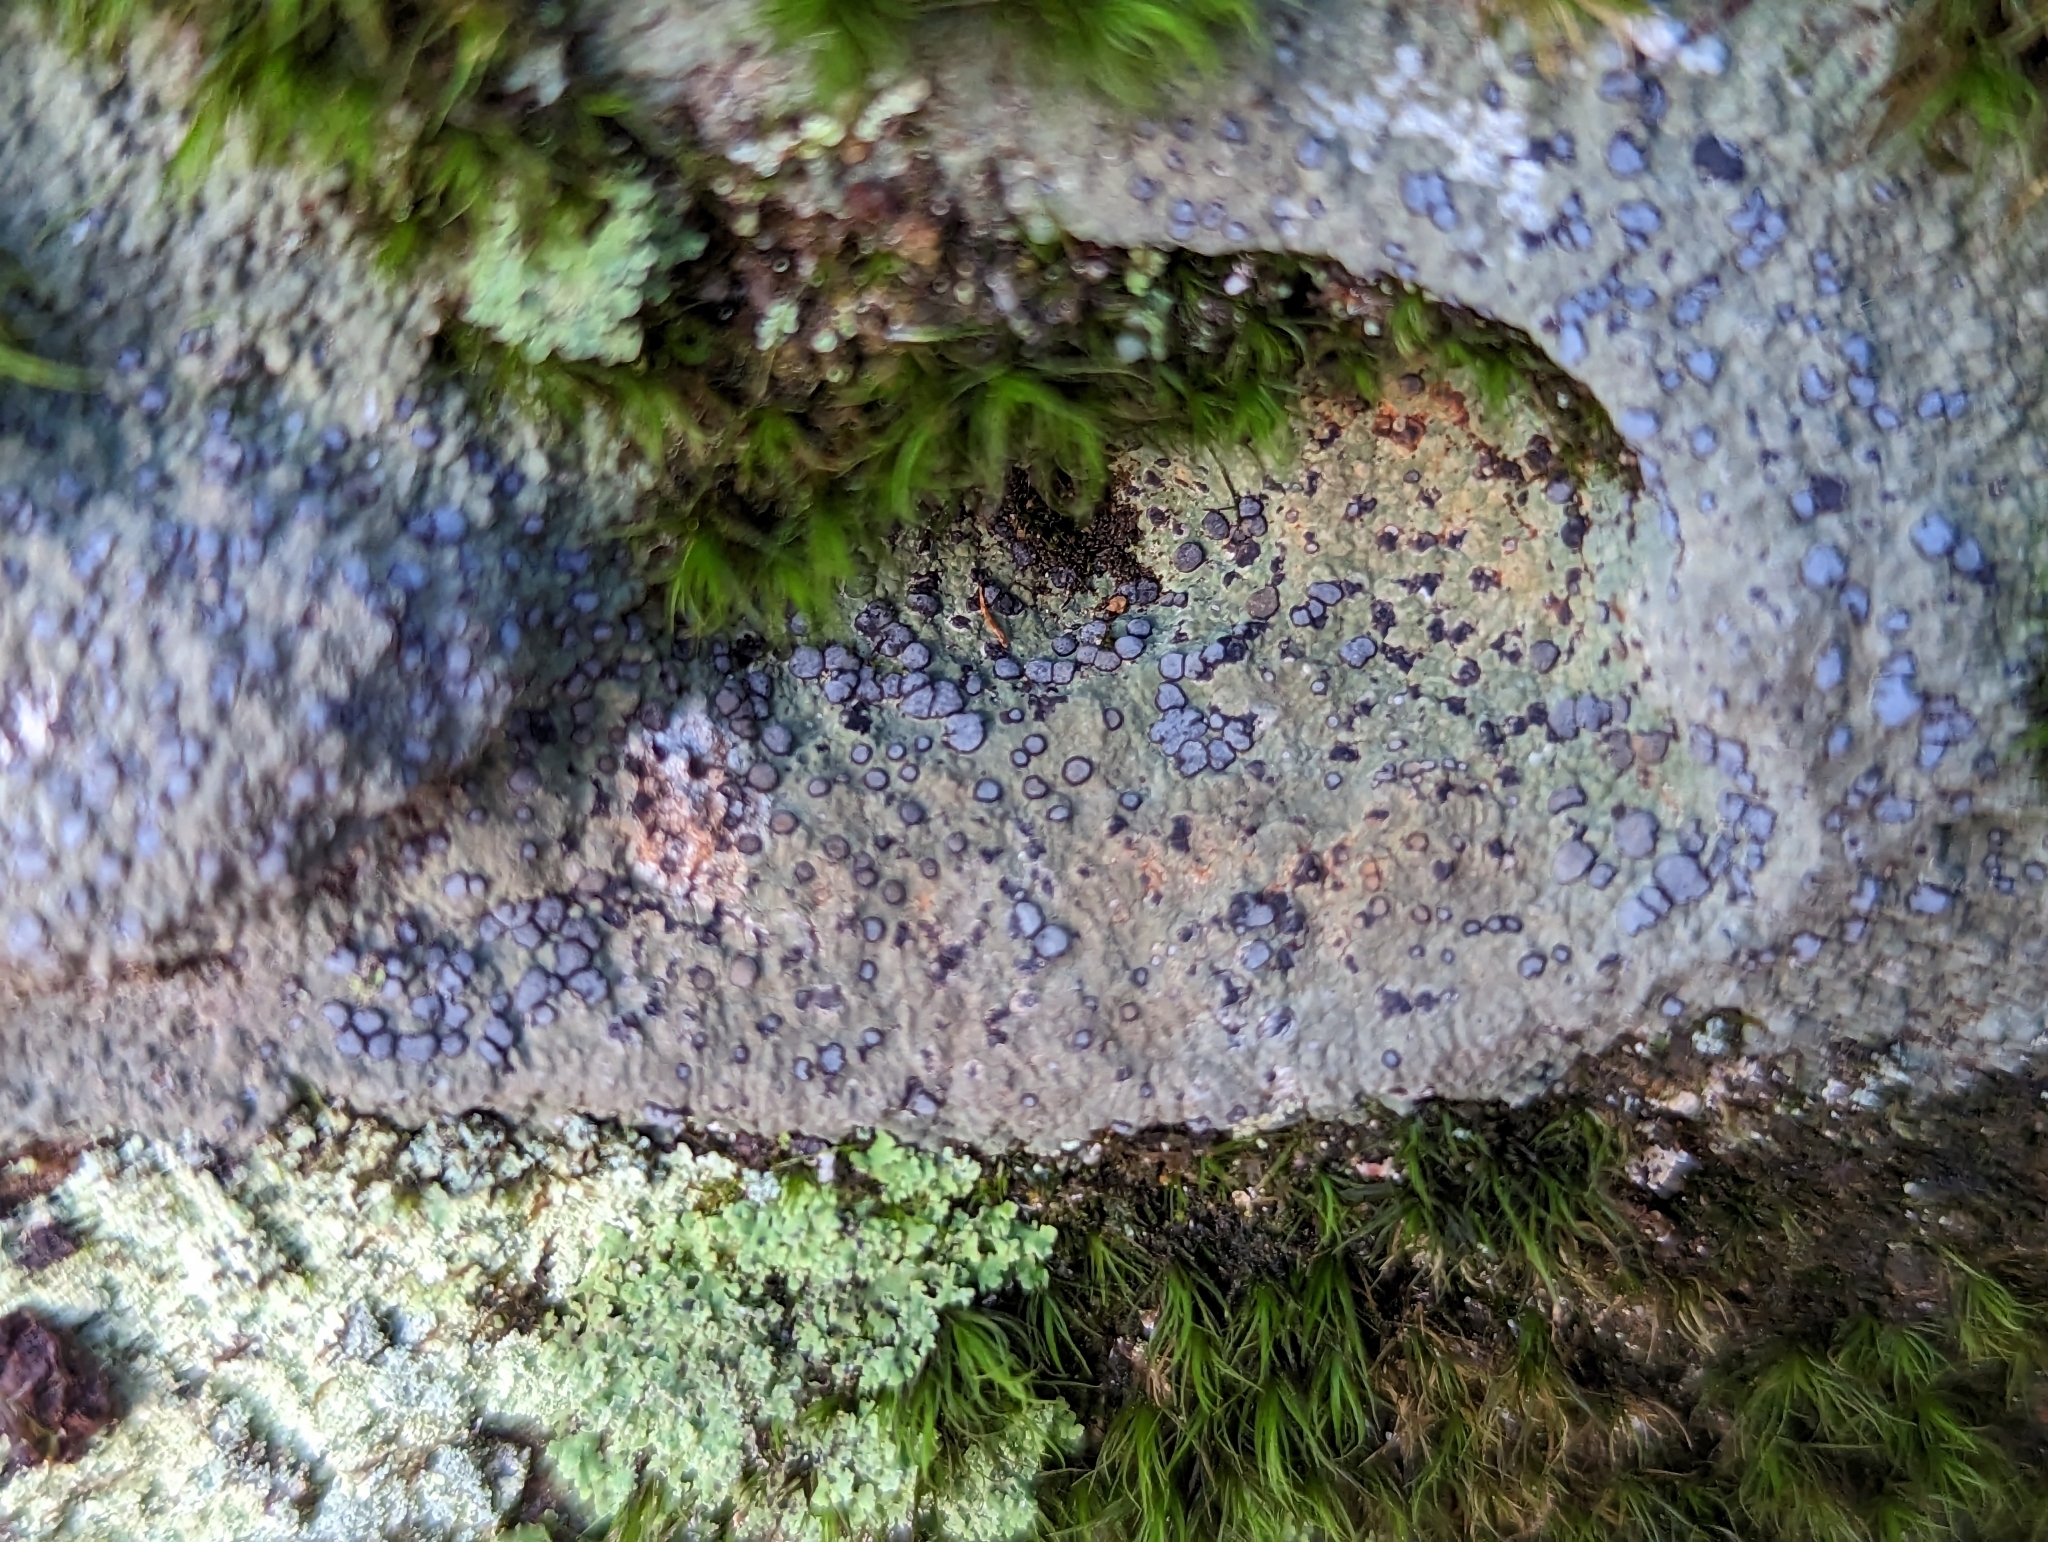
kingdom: Fungi
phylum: Ascomycota
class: Lecanoromycetes
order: Lecideales
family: Lecideaceae
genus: Porpidia
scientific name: Porpidia albocaerulescens
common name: Smokey-eyed boulder lichen
